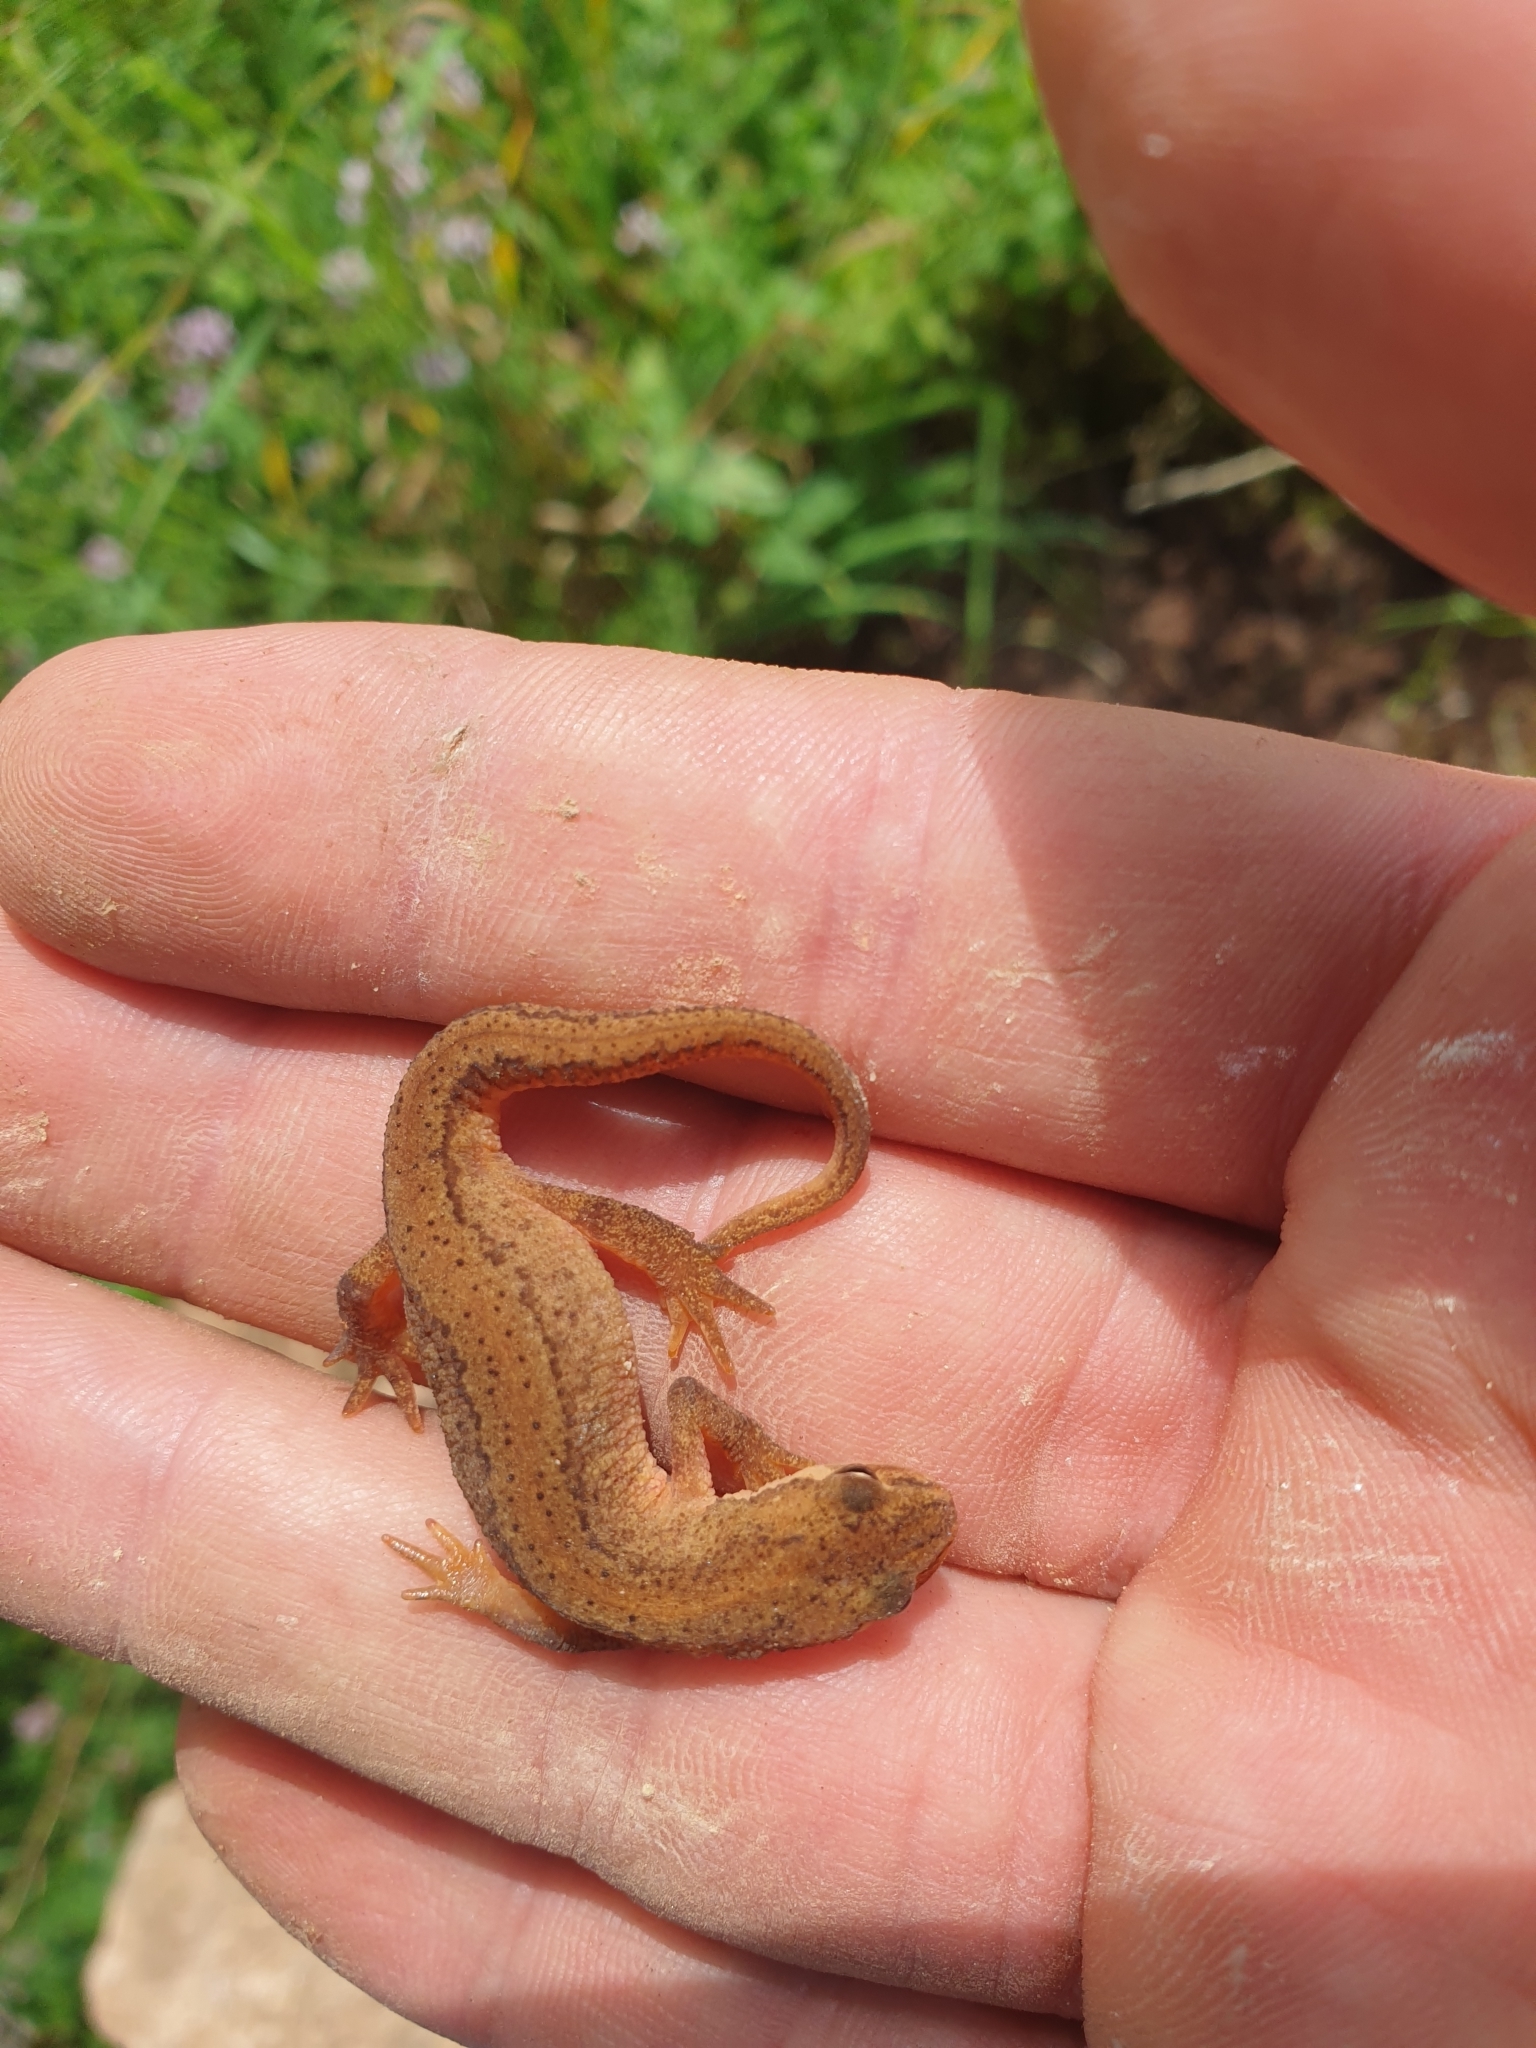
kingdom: Animalia
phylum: Chordata
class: Amphibia
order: Caudata
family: Salamandridae
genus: Lissotriton
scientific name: Lissotriton vulgaris
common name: Smooth newt
